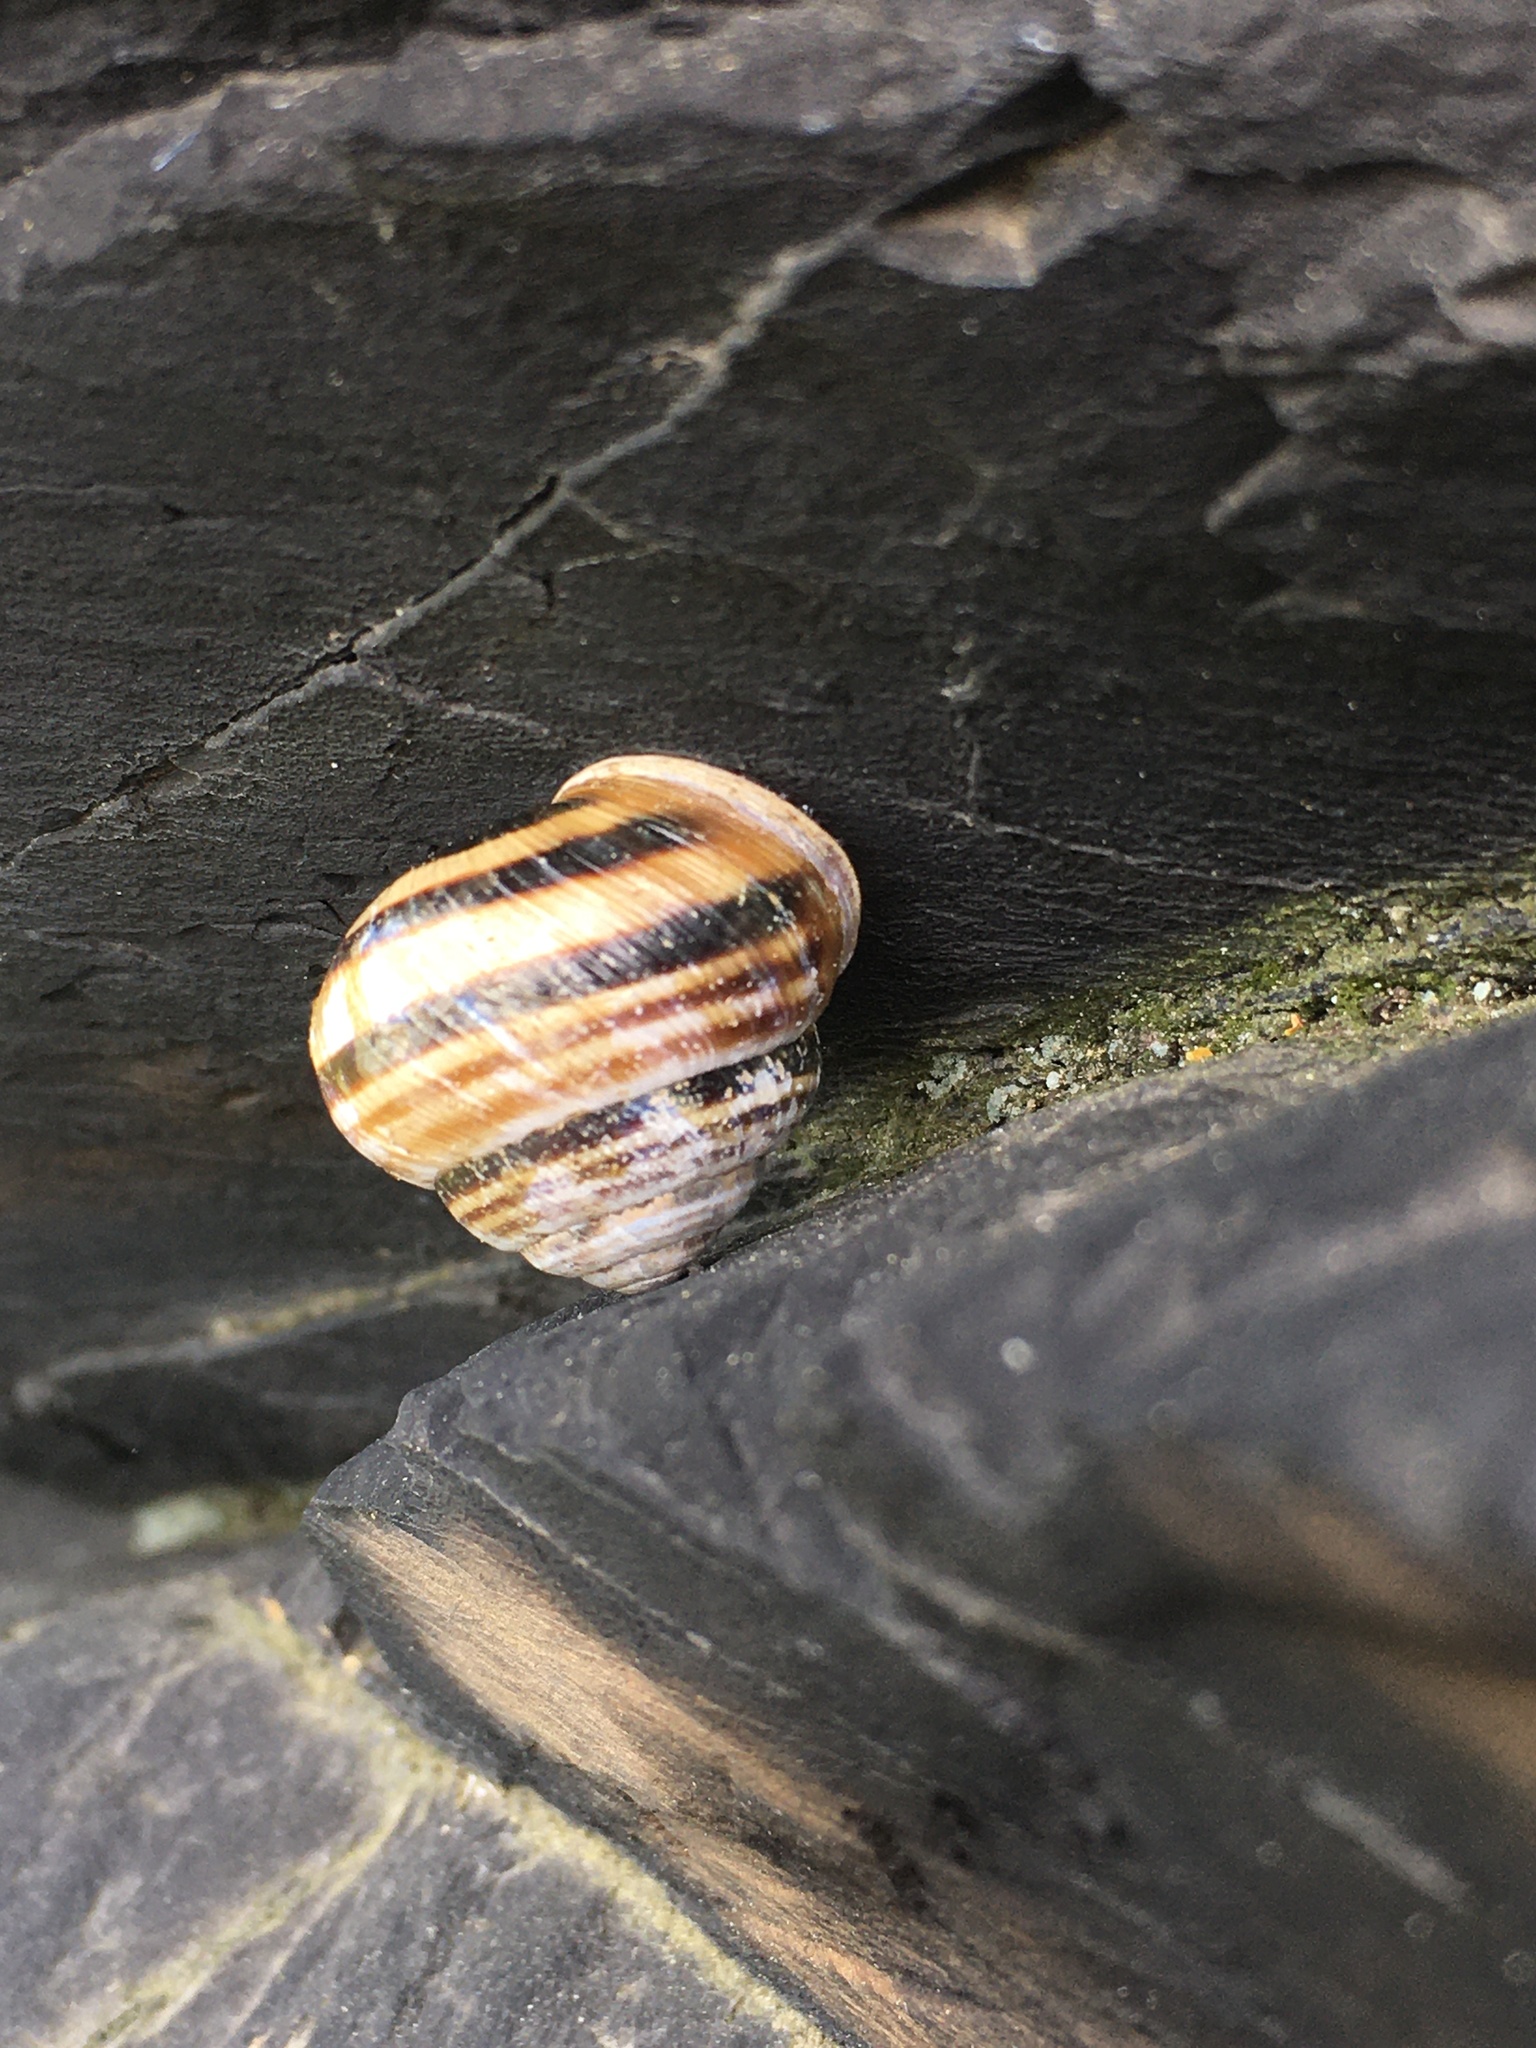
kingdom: Animalia
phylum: Mollusca
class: Gastropoda
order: Stylommatophora
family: Helicidae
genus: Caucasotachea
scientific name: Caucasotachea vindobonensis
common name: European helicid land snail
